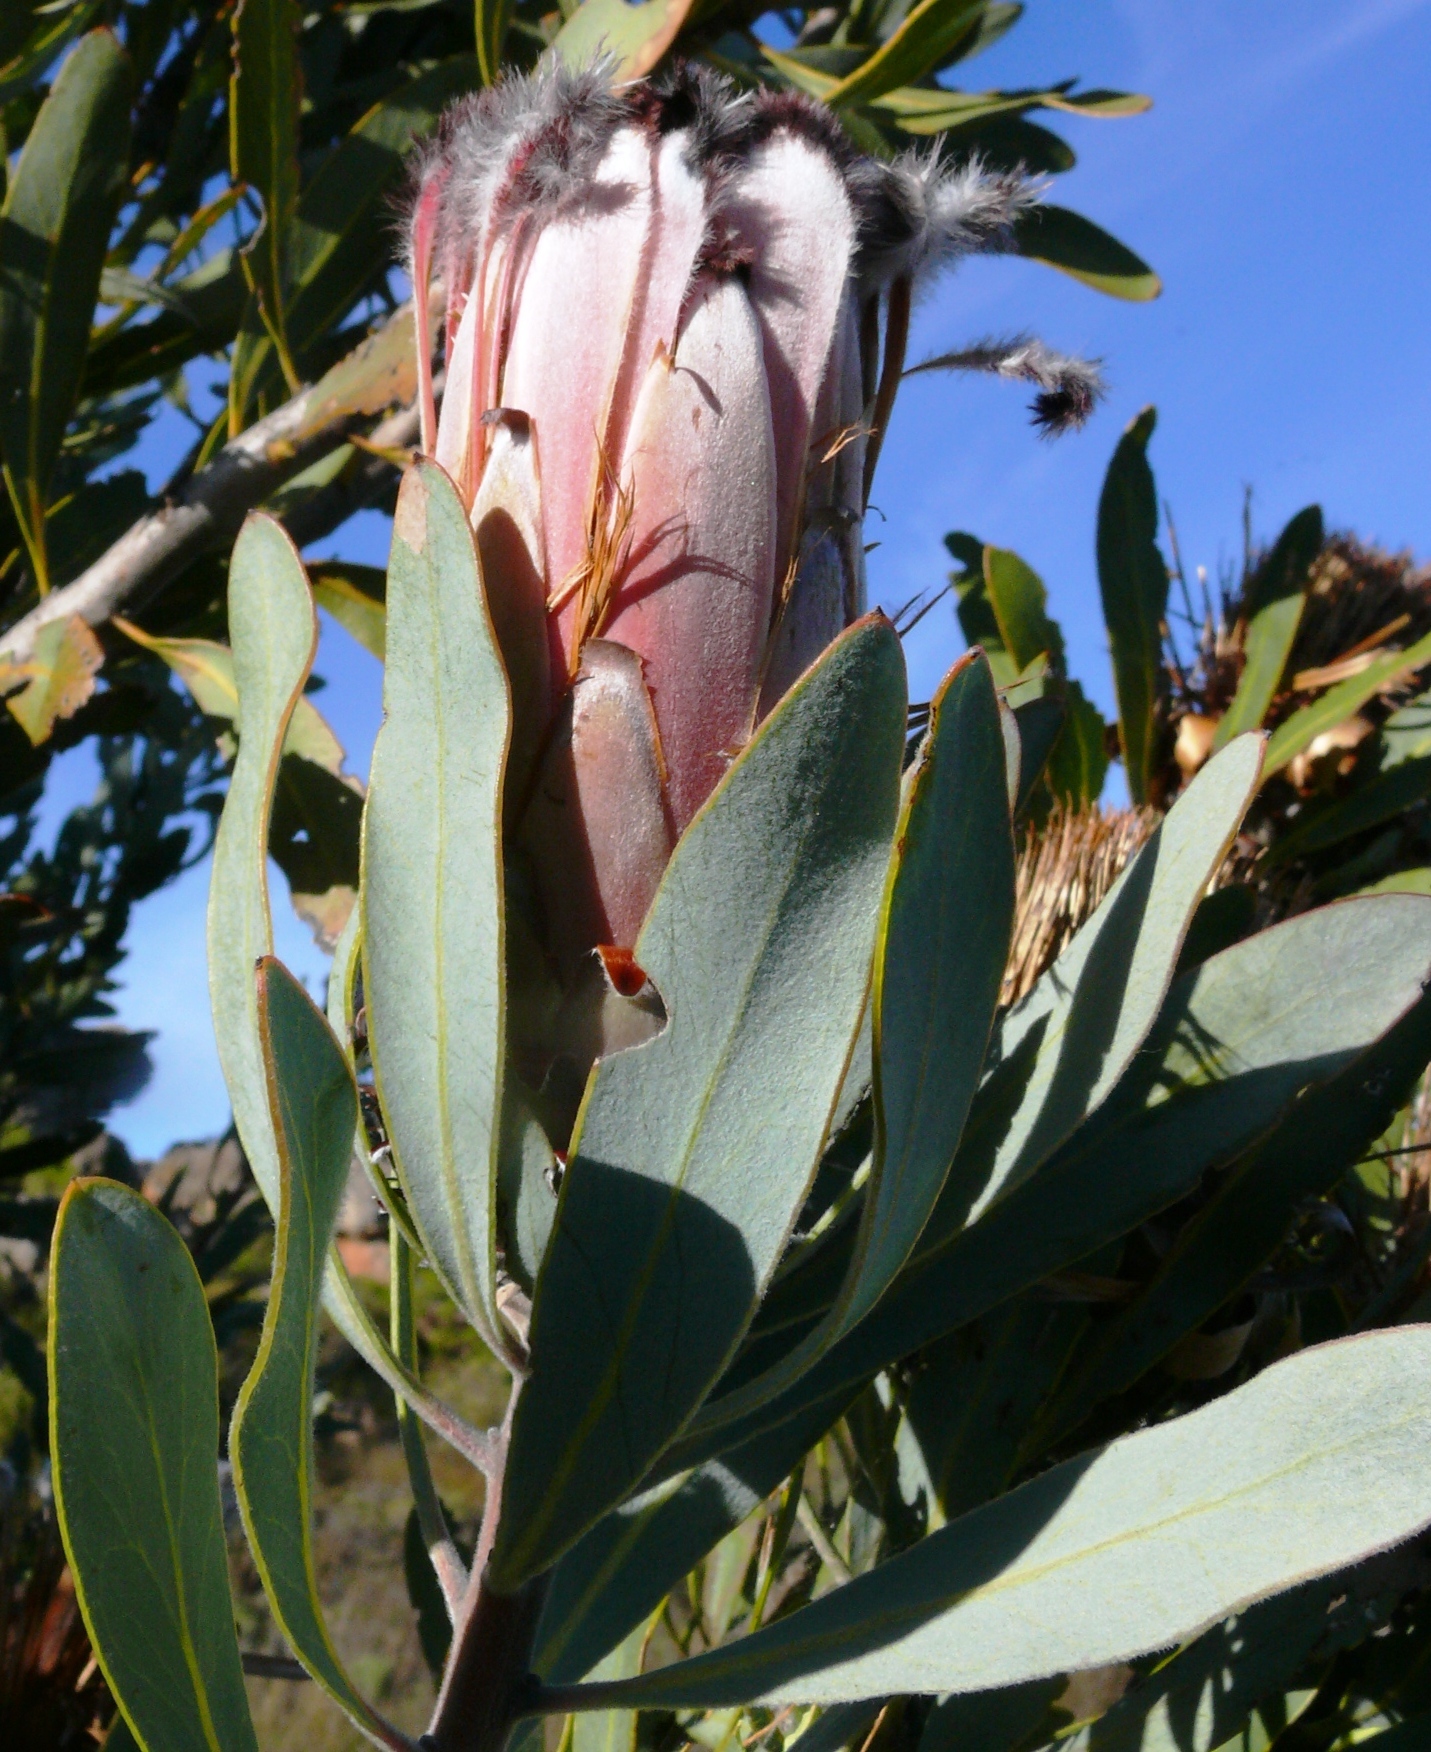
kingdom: Plantae
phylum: Tracheophyta
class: Magnoliopsida
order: Proteales
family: Proteaceae
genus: Protea
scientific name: Protea laurifolia
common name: Grey-leaf sugarbsh
